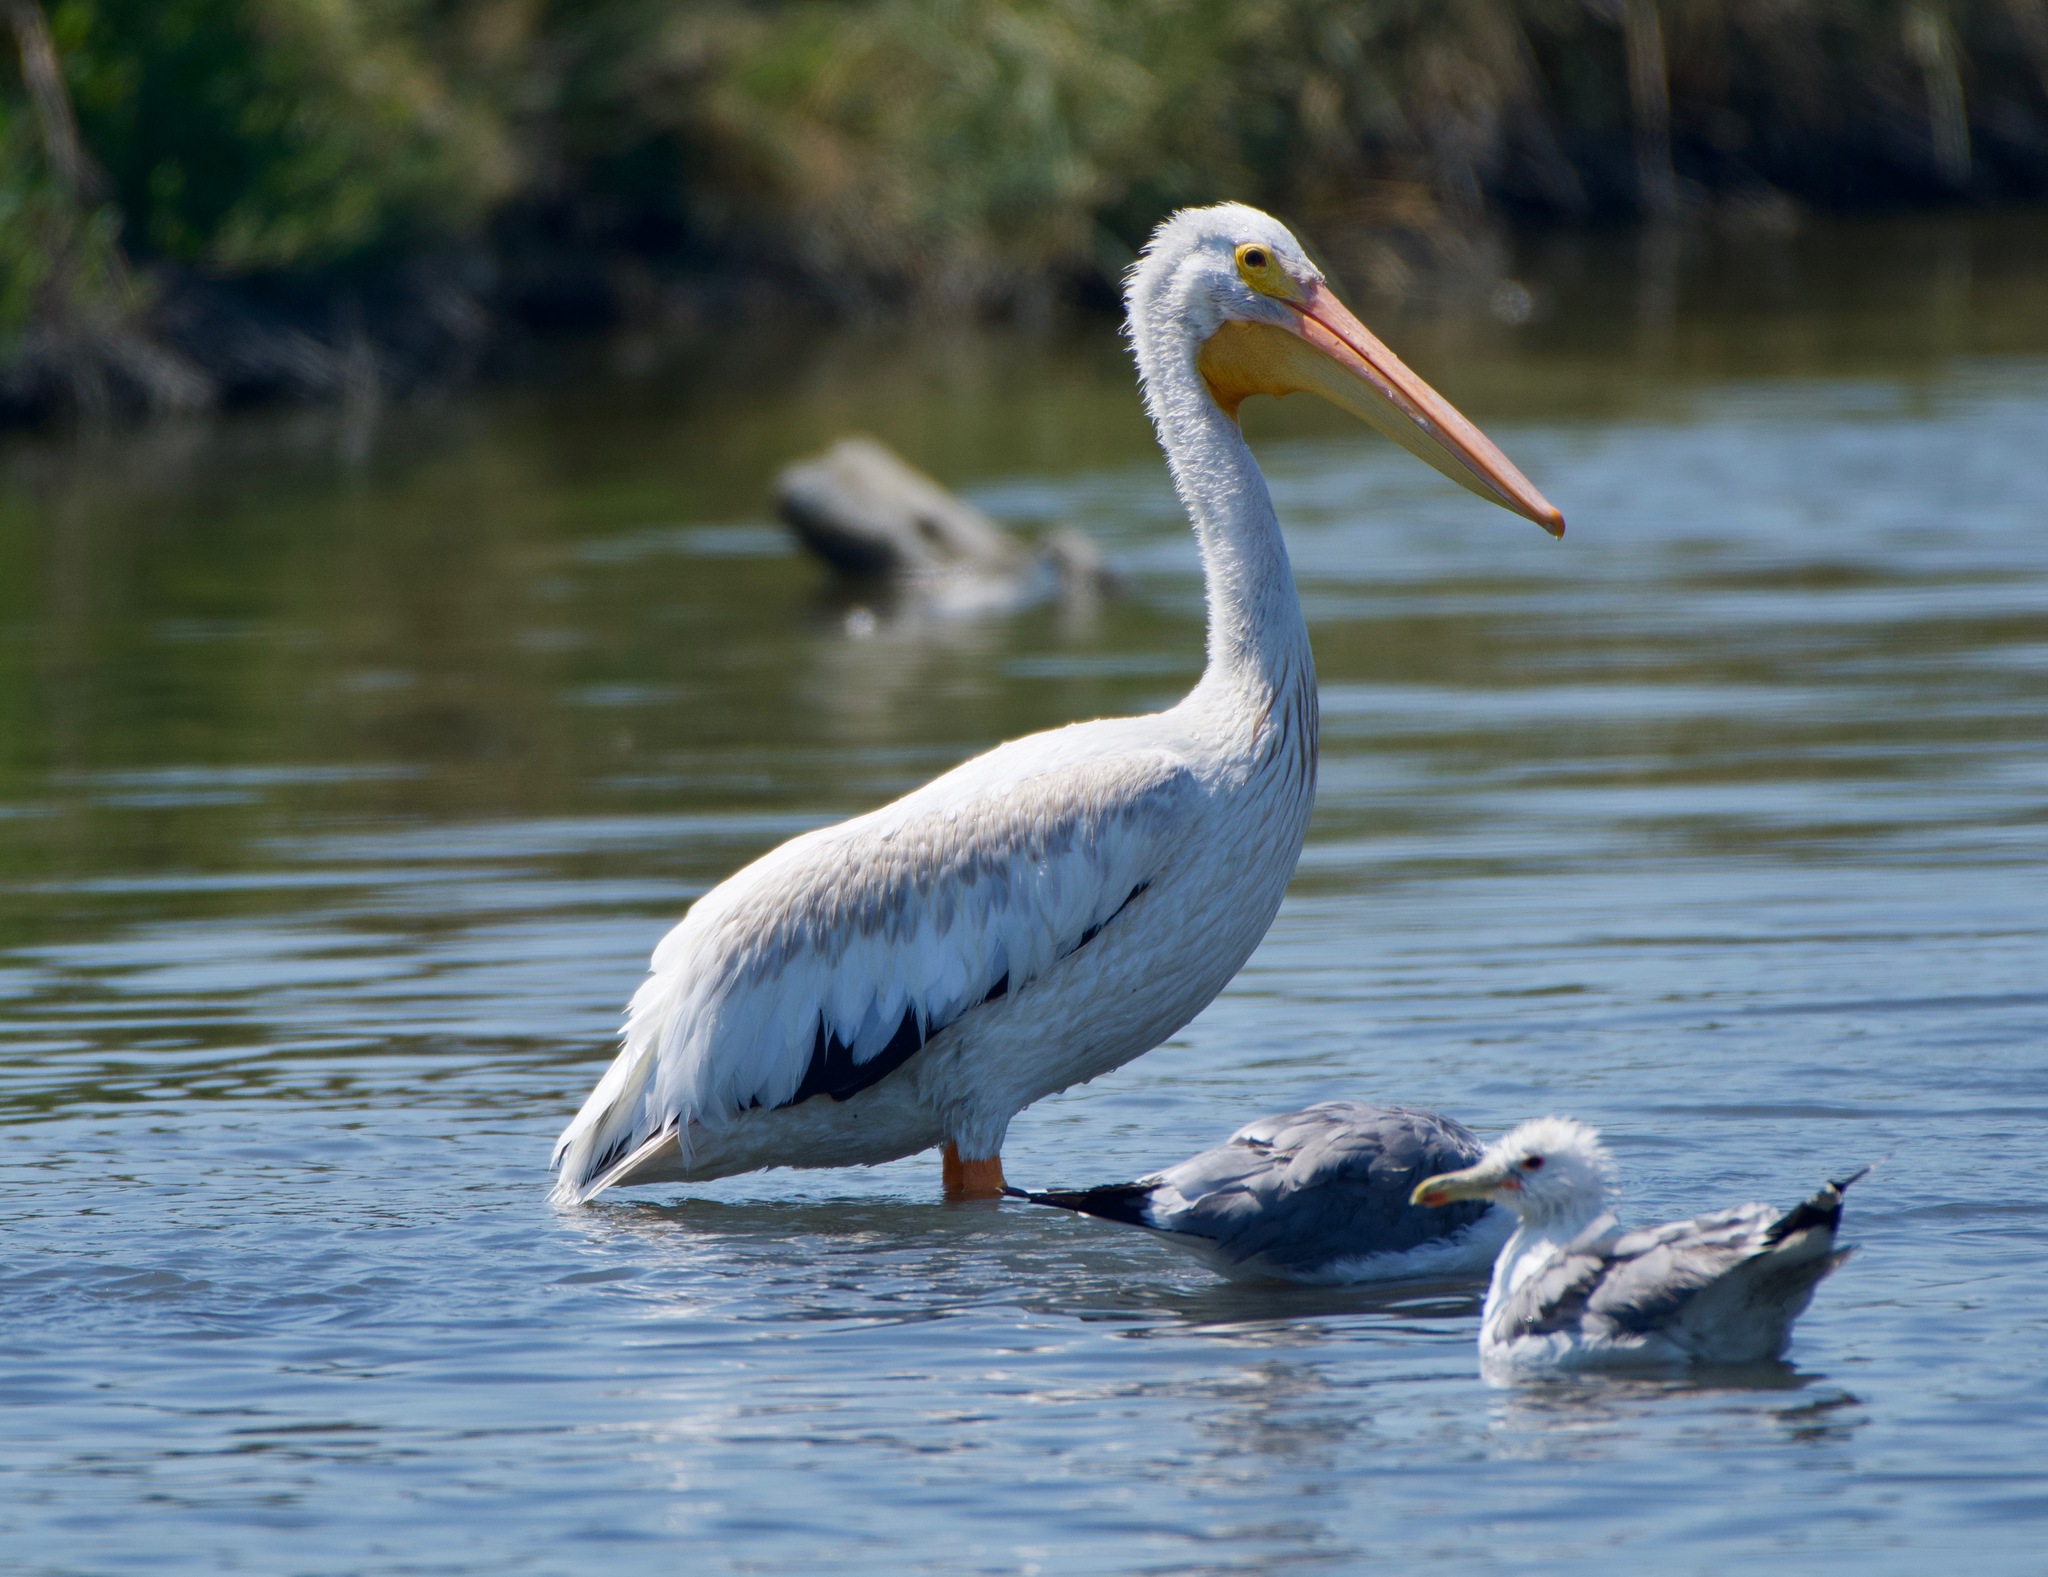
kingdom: Animalia
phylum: Chordata
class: Aves
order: Pelecaniformes
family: Pelecanidae
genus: Pelecanus
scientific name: Pelecanus erythrorhynchos
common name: American white pelican
